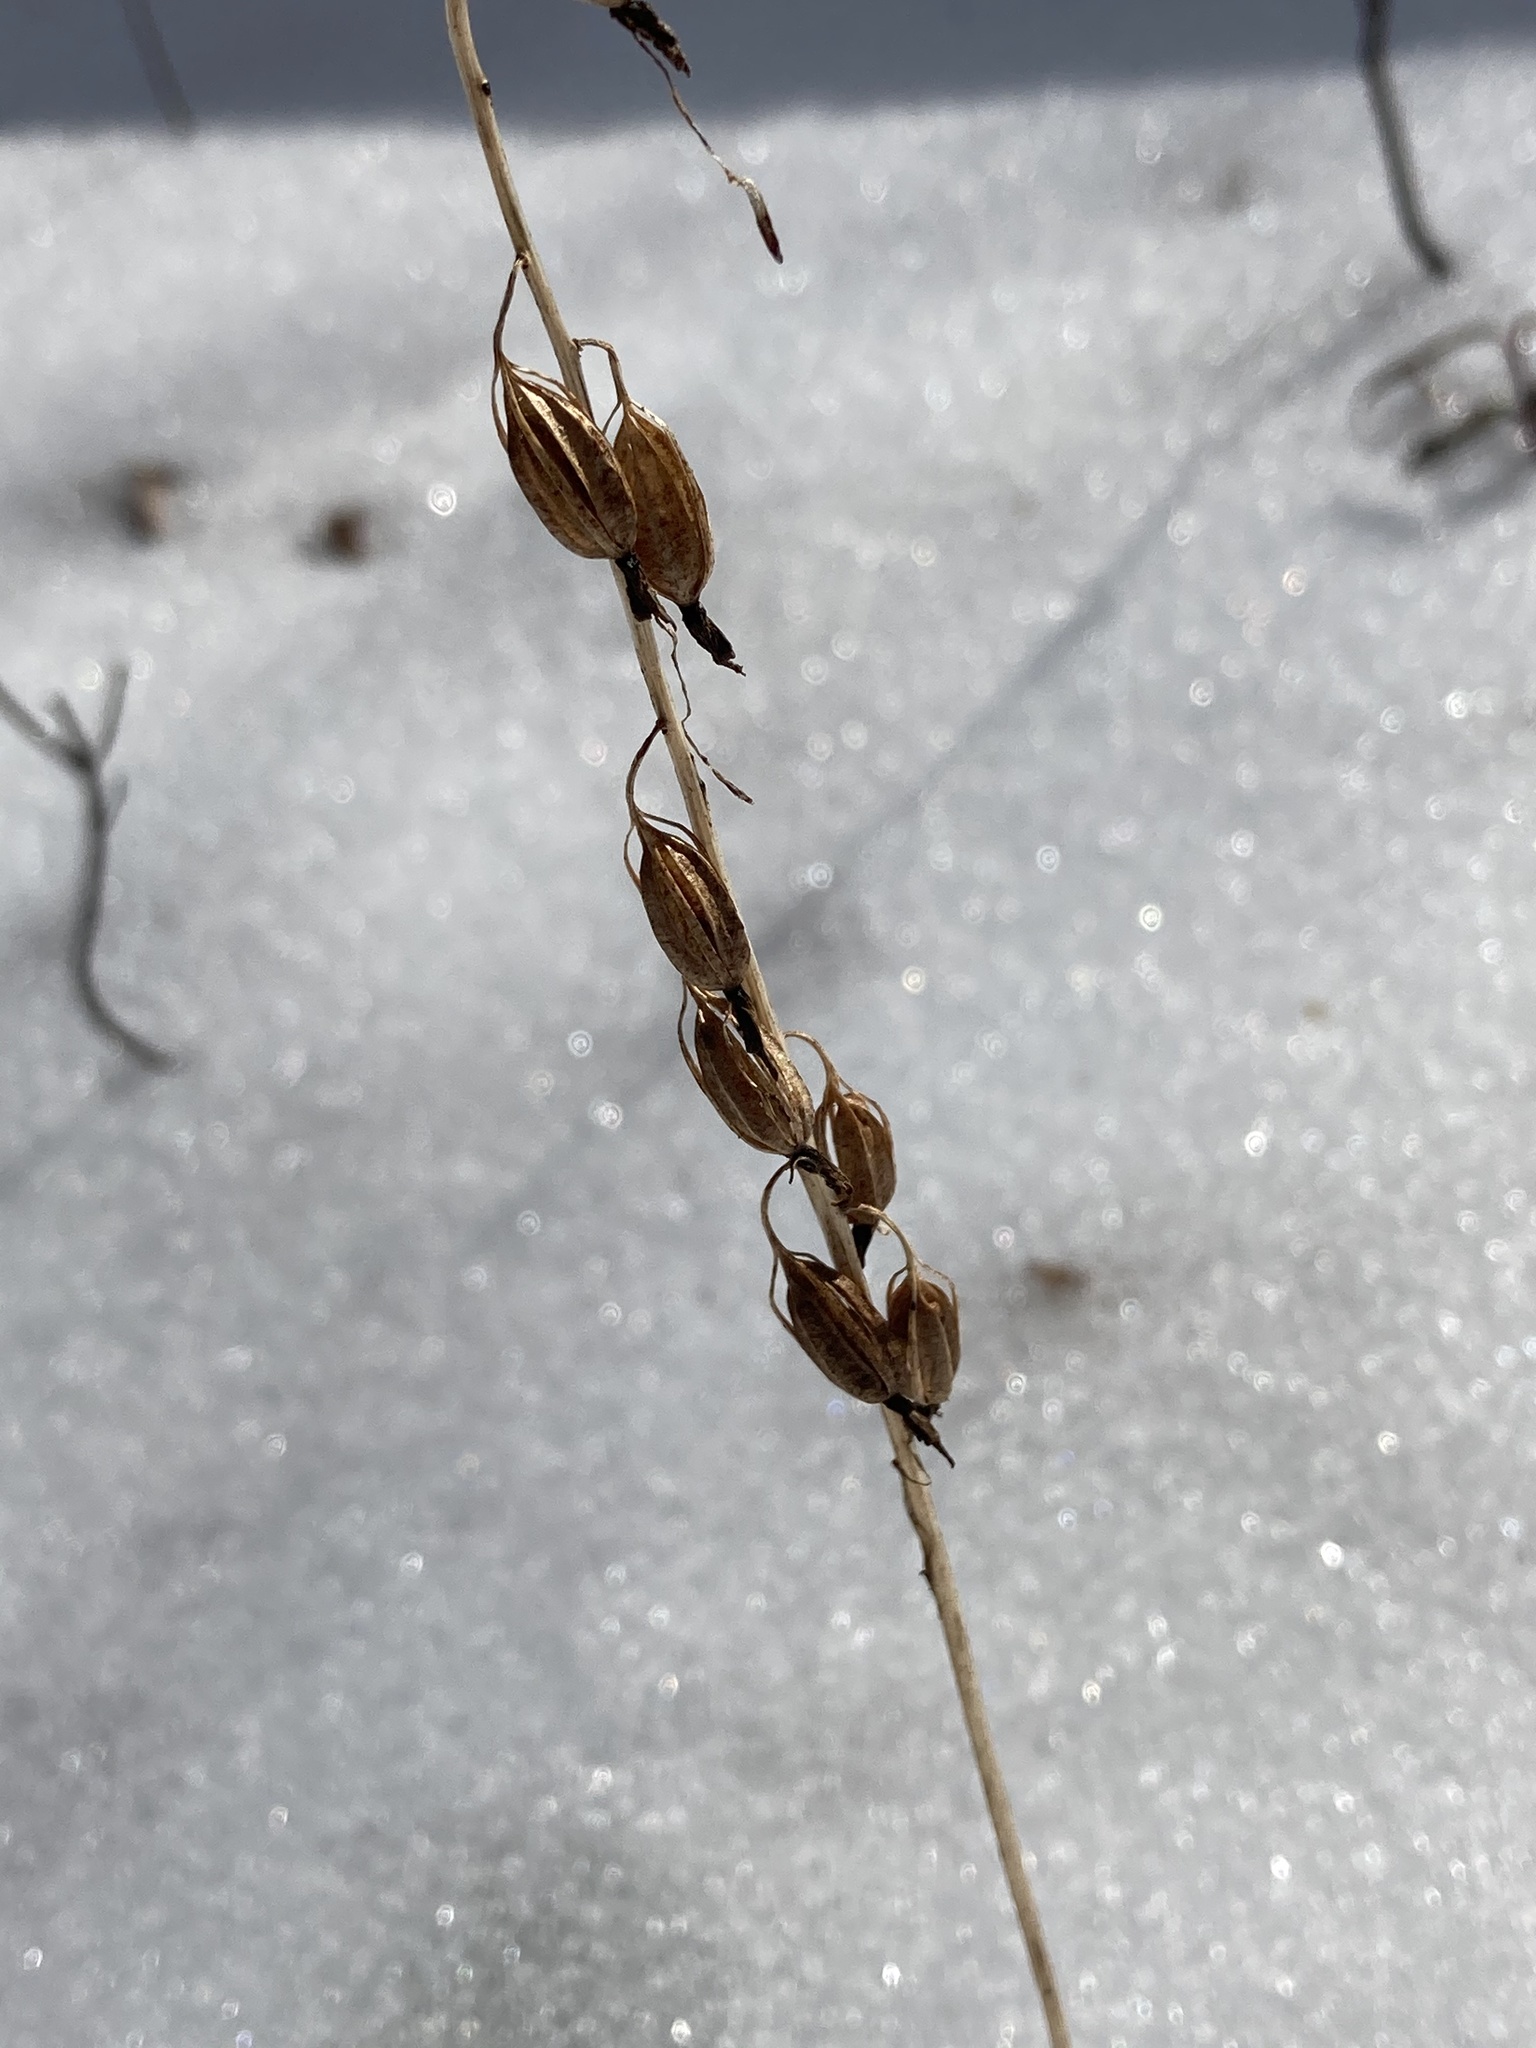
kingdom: Plantae
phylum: Tracheophyta
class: Liliopsida
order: Asparagales
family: Orchidaceae
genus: Tipularia
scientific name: Tipularia discolor
